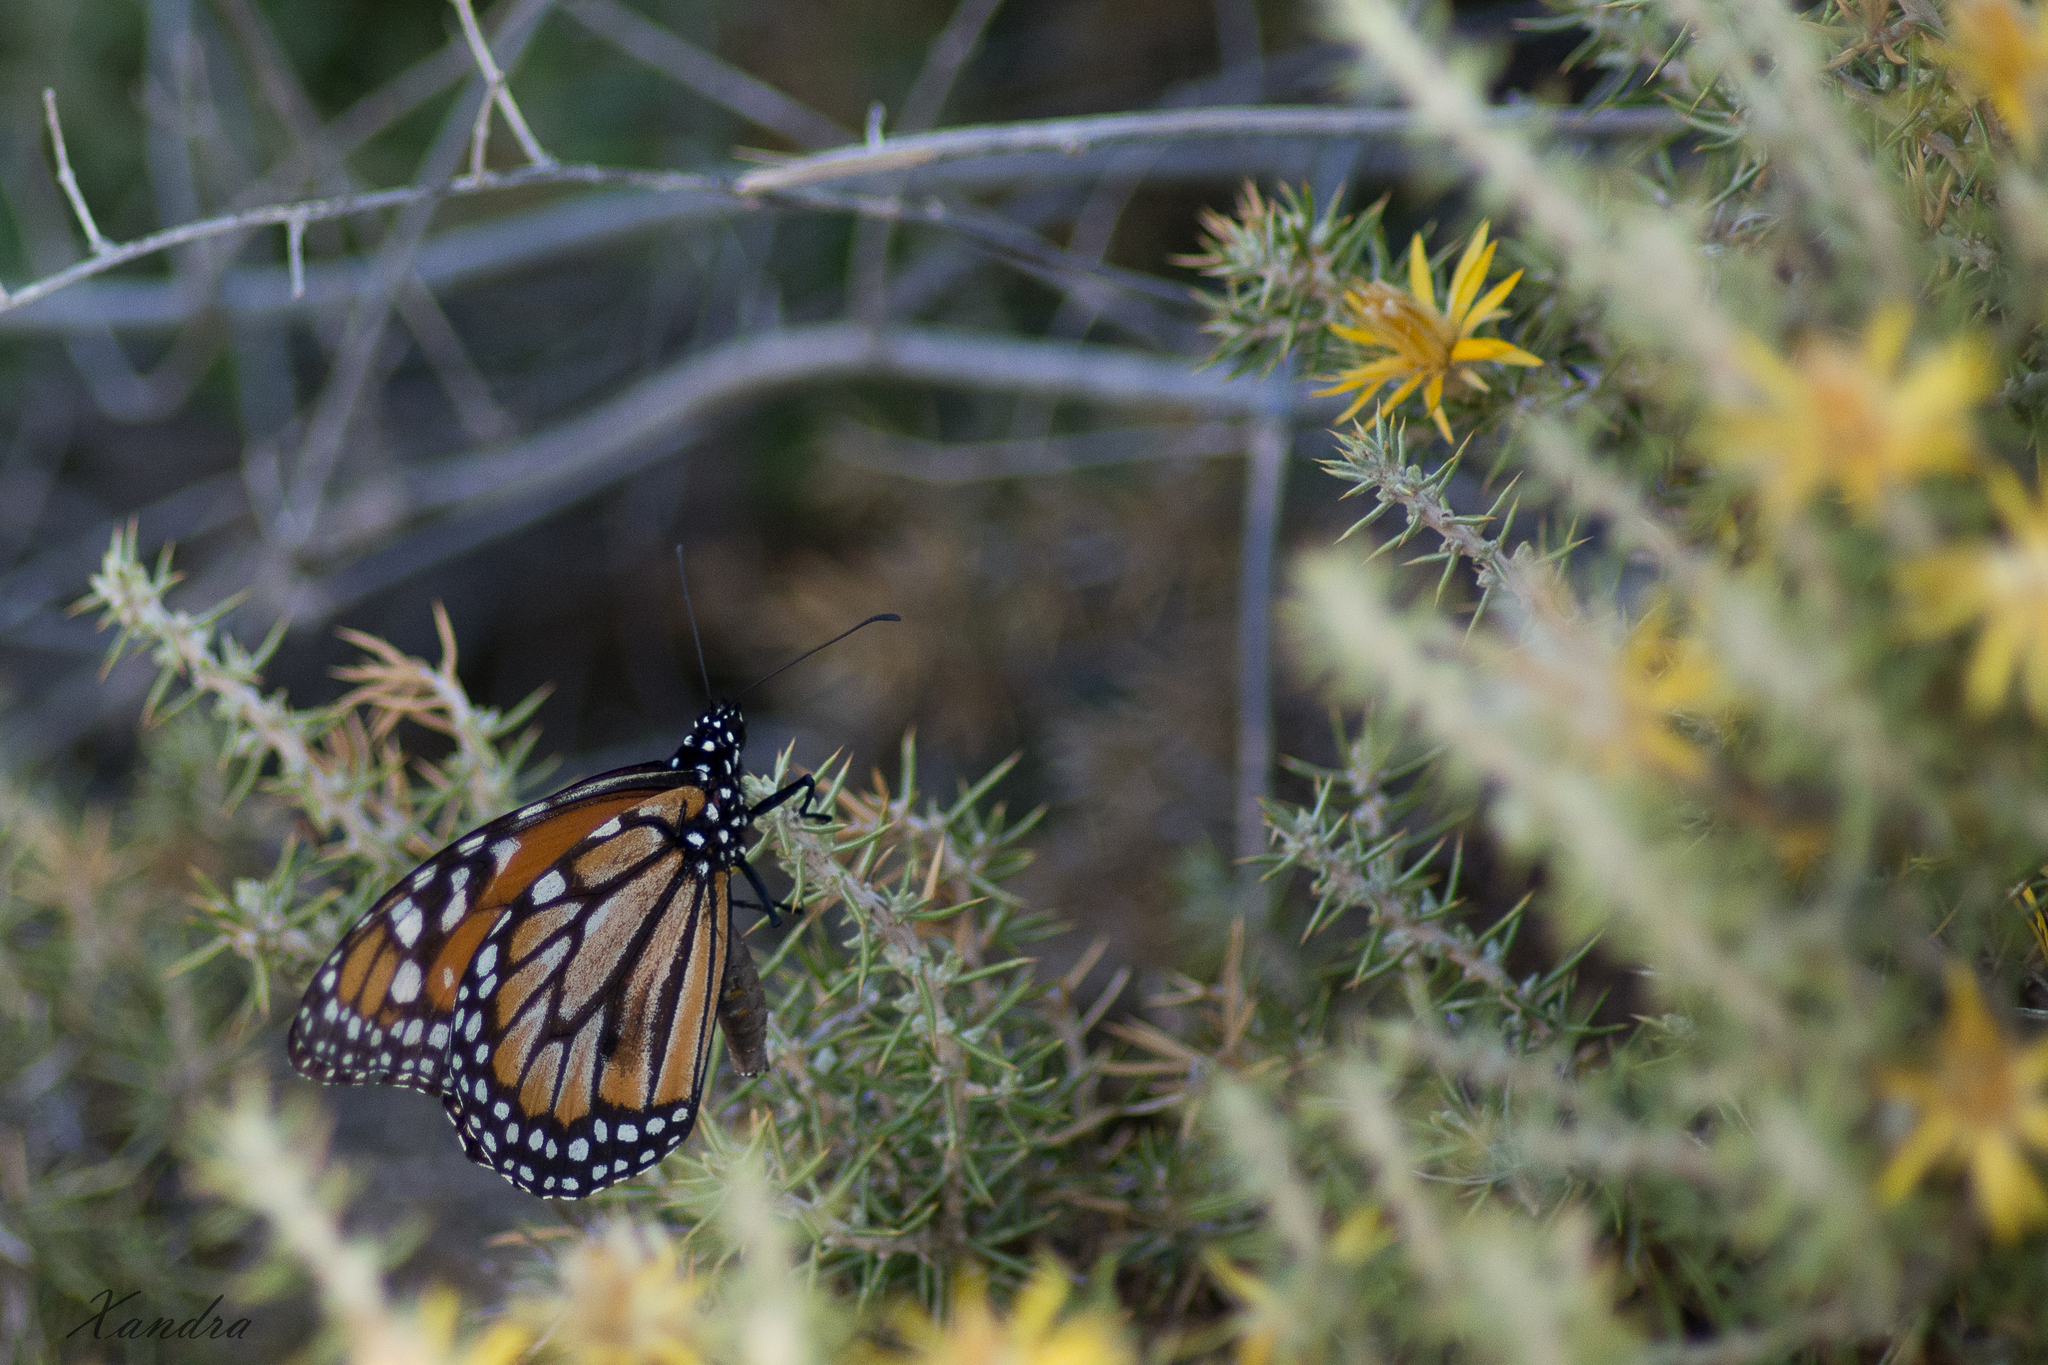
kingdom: Animalia
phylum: Arthropoda
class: Insecta
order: Lepidoptera
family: Nymphalidae
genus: Danaus
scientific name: Danaus erippus
